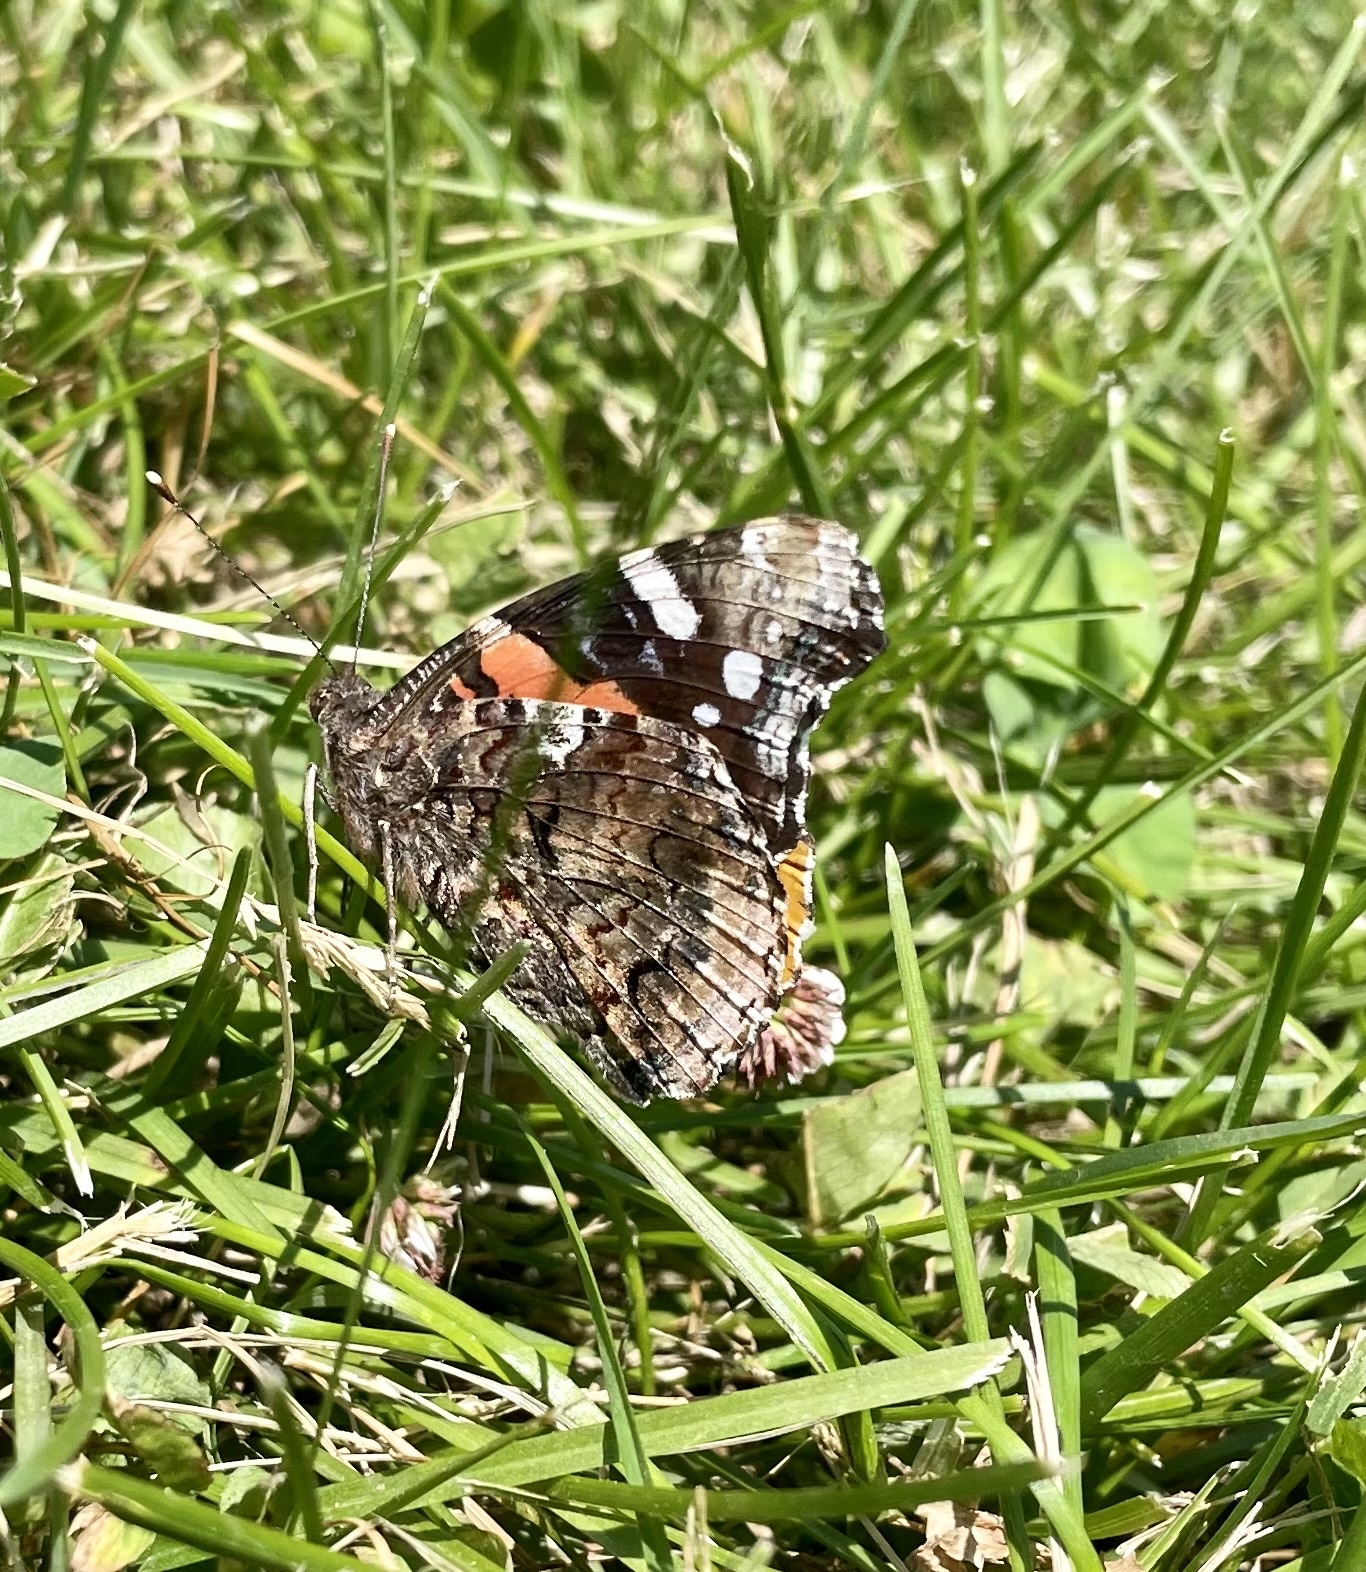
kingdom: Animalia
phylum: Arthropoda
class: Insecta
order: Lepidoptera
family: Nymphalidae
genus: Vanessa
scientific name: Vanessa atalanta
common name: Red admiral
